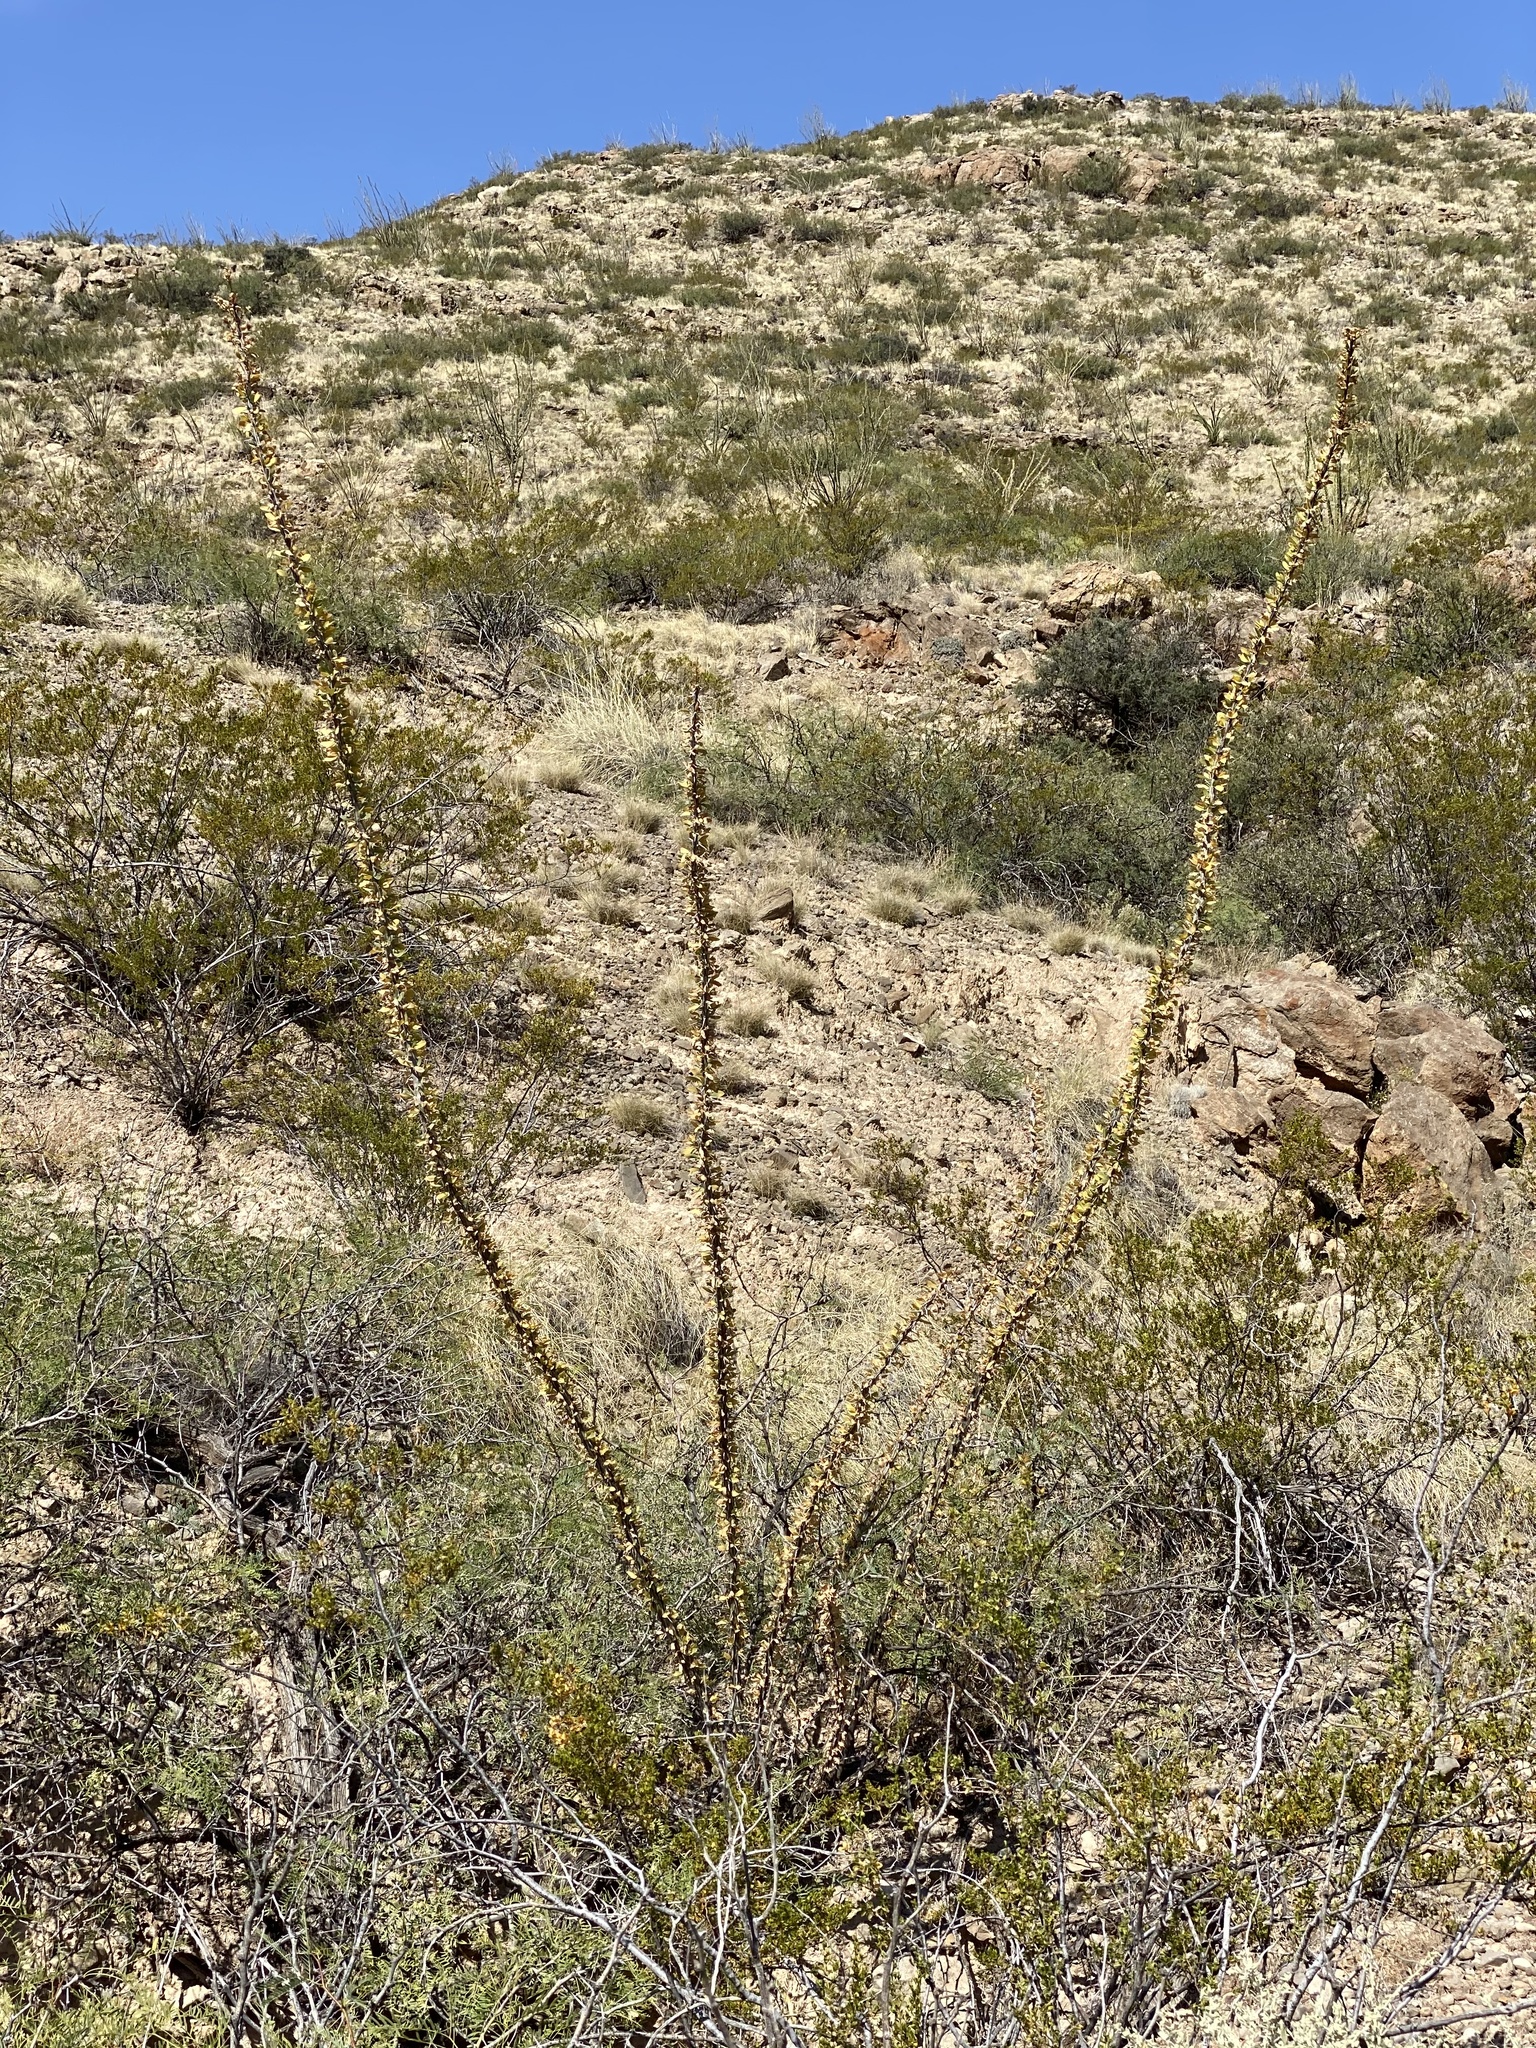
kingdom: Plantae
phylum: Tracheophyta
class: Magnoliopsida
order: Ericales
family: Fouquieriaceae
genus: Fouquieria
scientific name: Fouquieria splendens
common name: Vine-cactus
